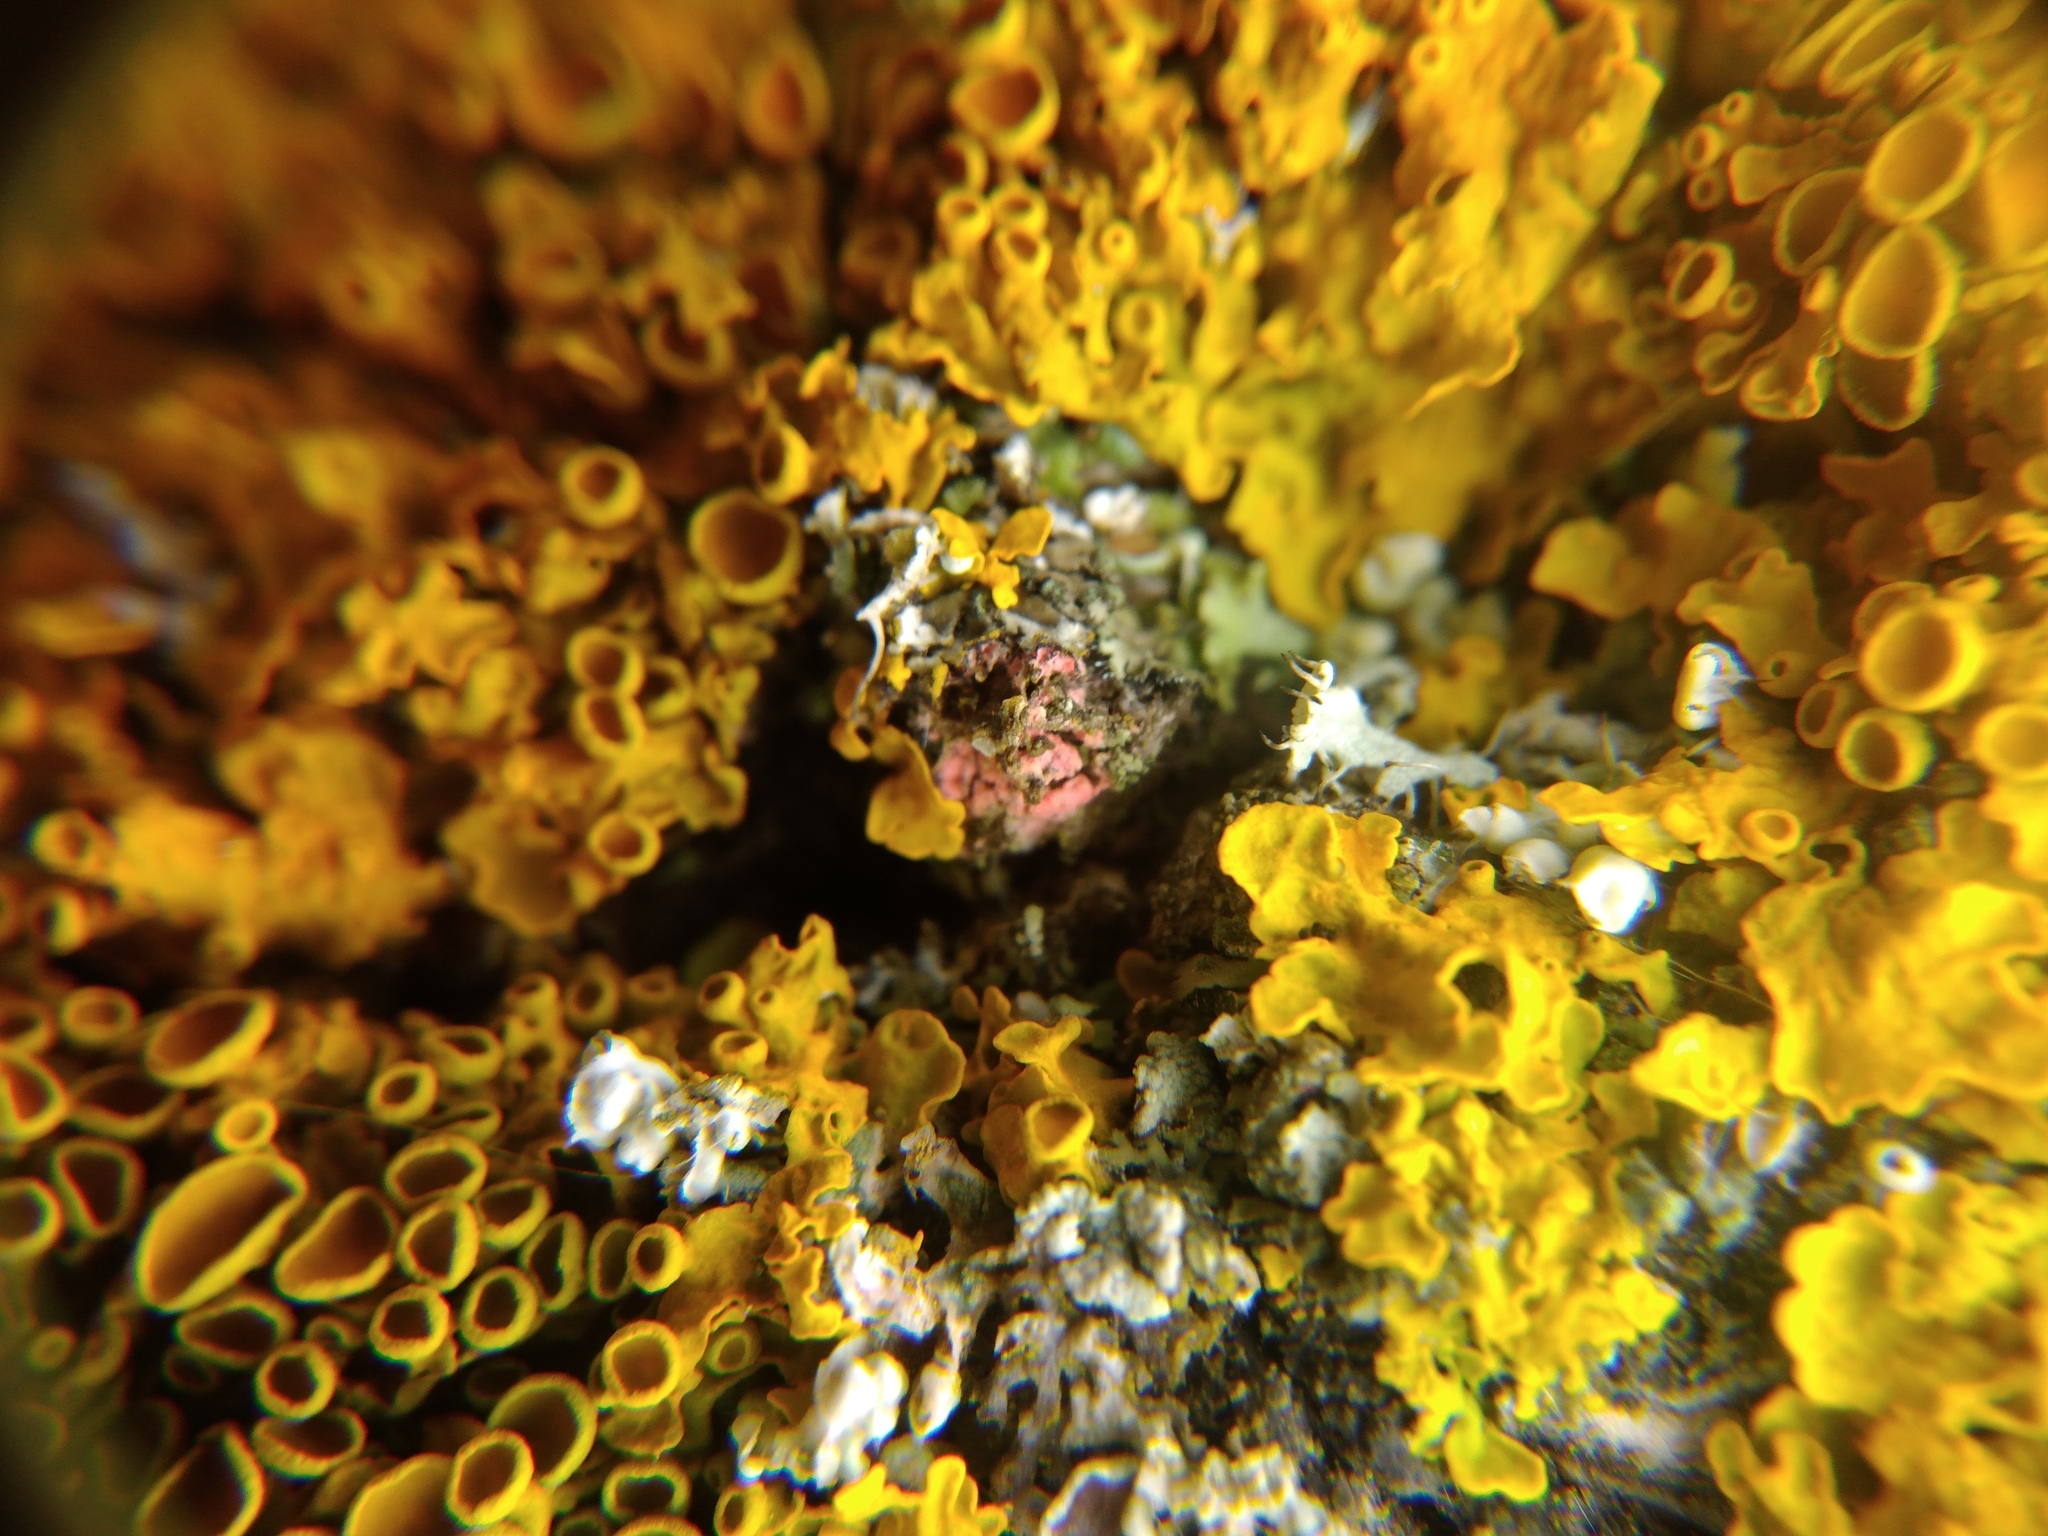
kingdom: Fungi
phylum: Ascomycota
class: Sordariomycetes
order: Hypocreales
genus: Illosporiopsis
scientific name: Illosporiopsis christiansenii
